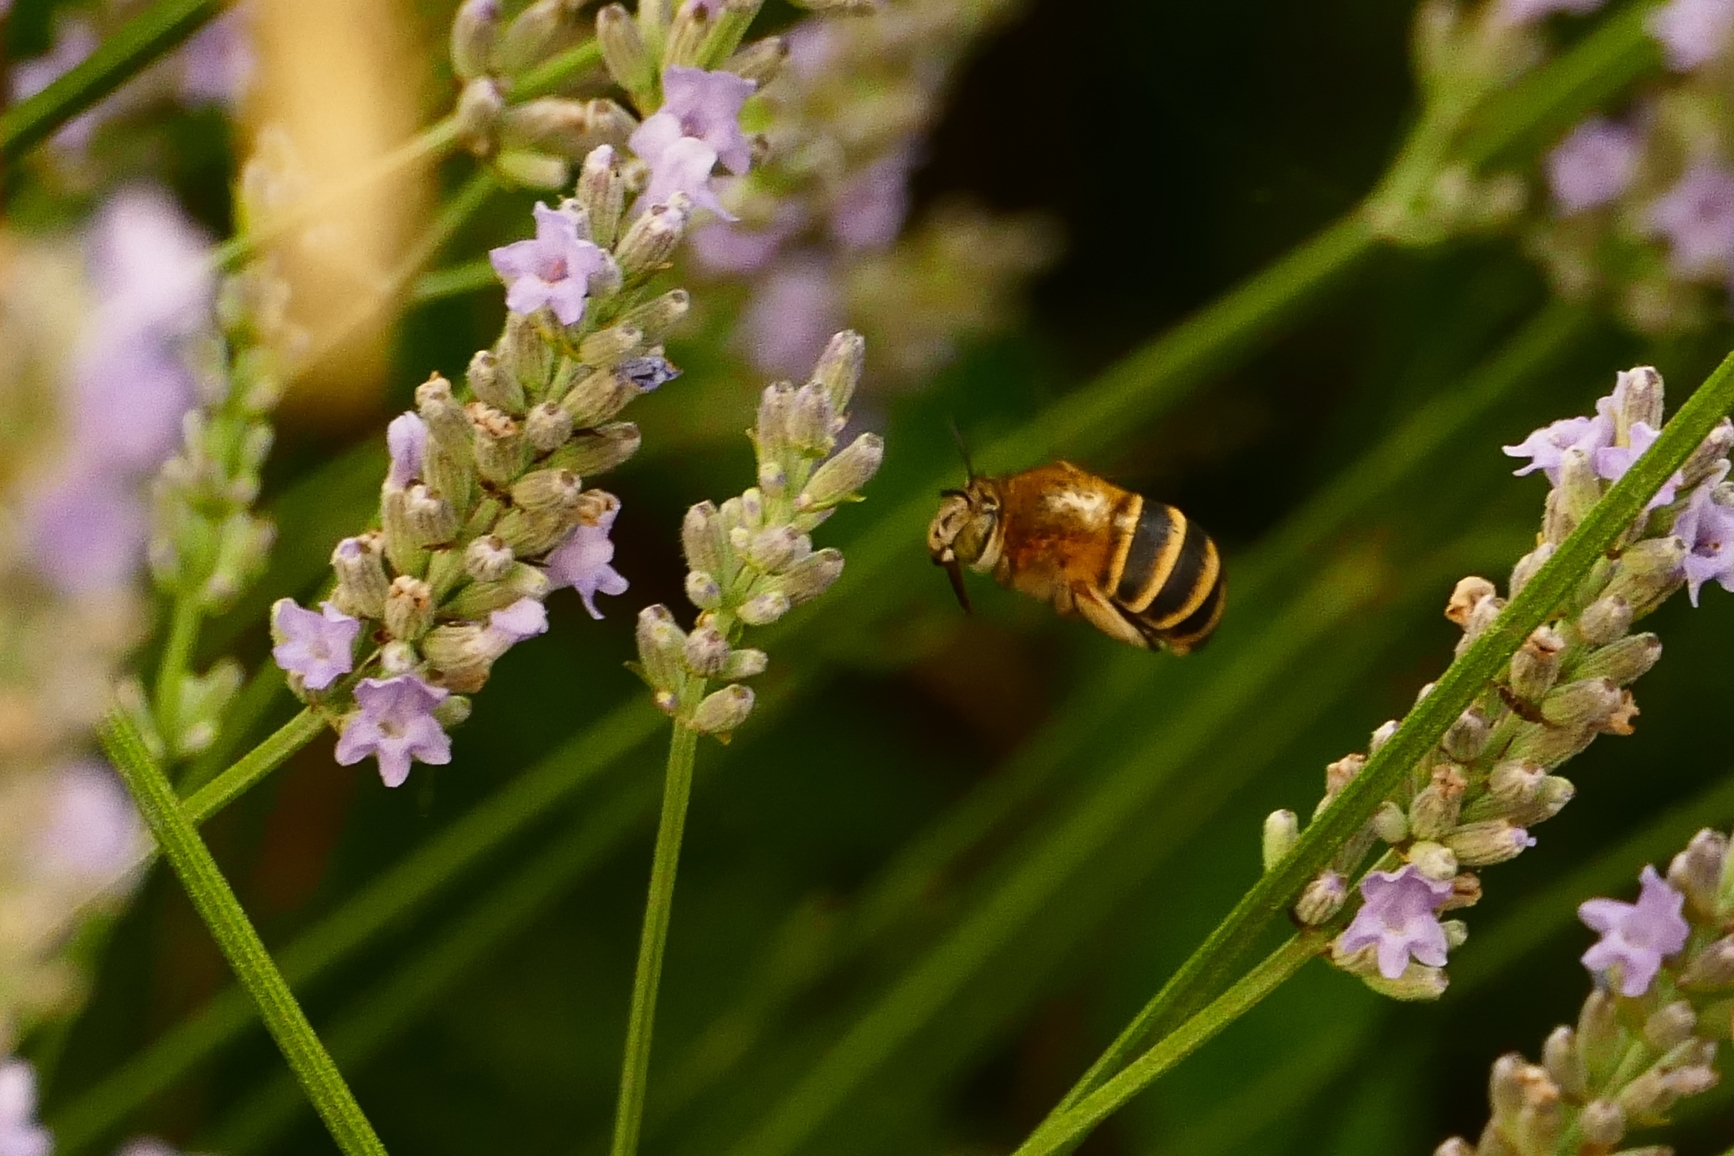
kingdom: Animalia
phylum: Arthropoda
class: Insecta
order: Hymenoptera
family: Apidae
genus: Amegilla
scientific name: Amegilla garrula
